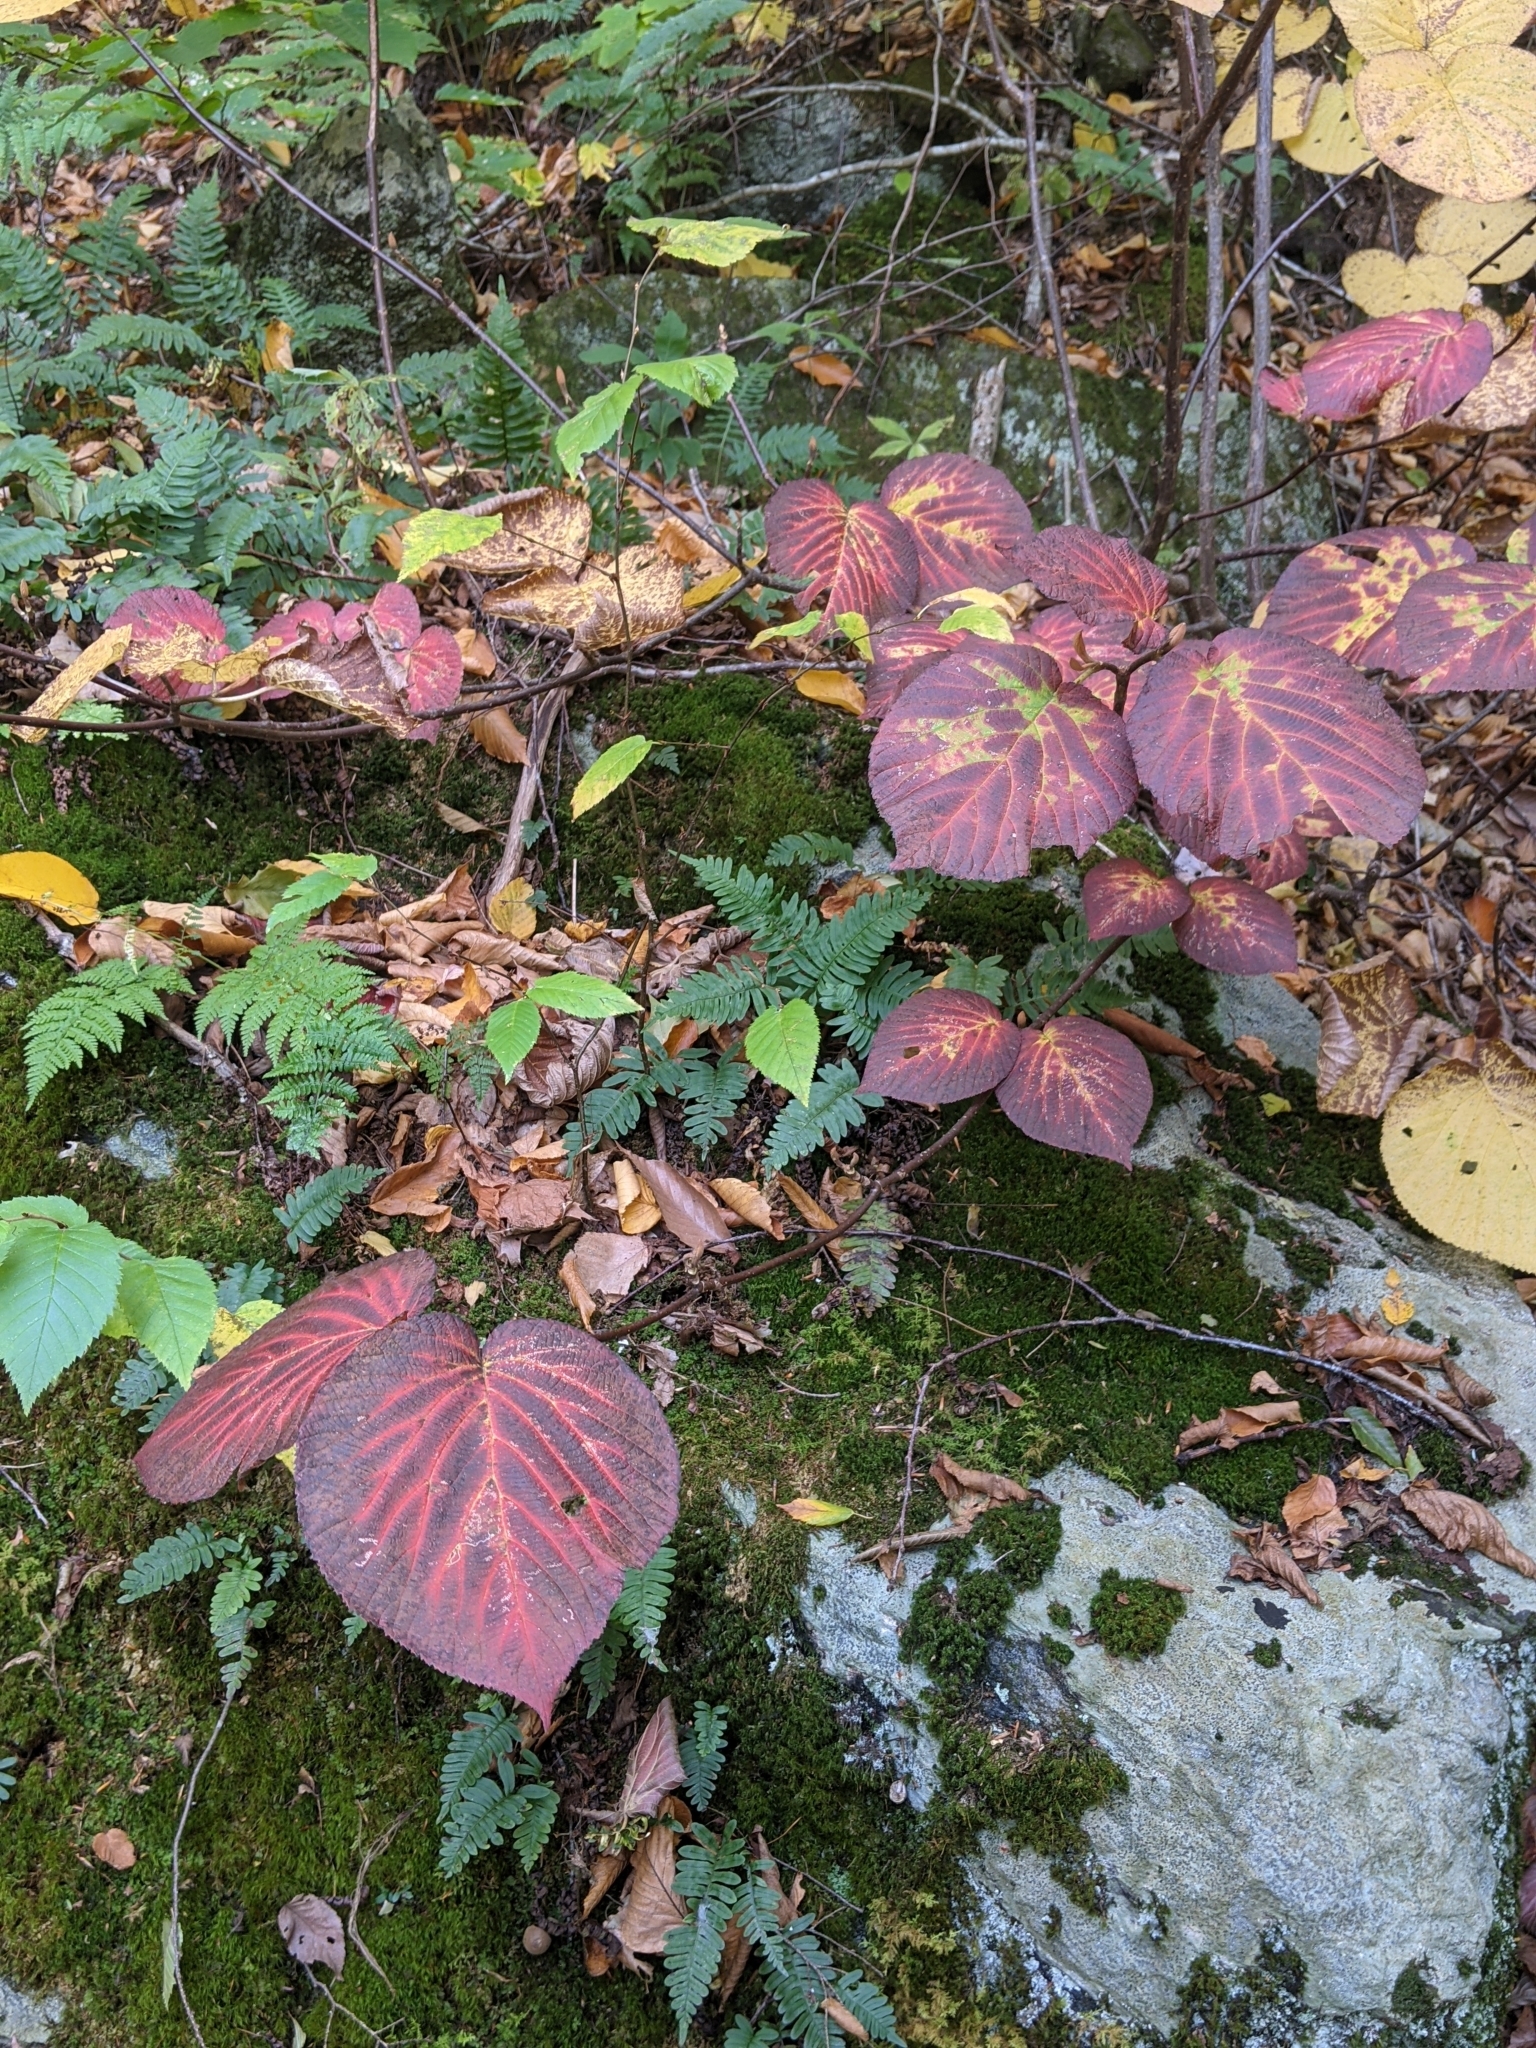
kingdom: Plantae
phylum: Tracheophyta
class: Magnoliopsida
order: Dipsacales
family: Viburnaceae
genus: Viburnum
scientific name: Viburnum lantanoides
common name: Hobblebush
